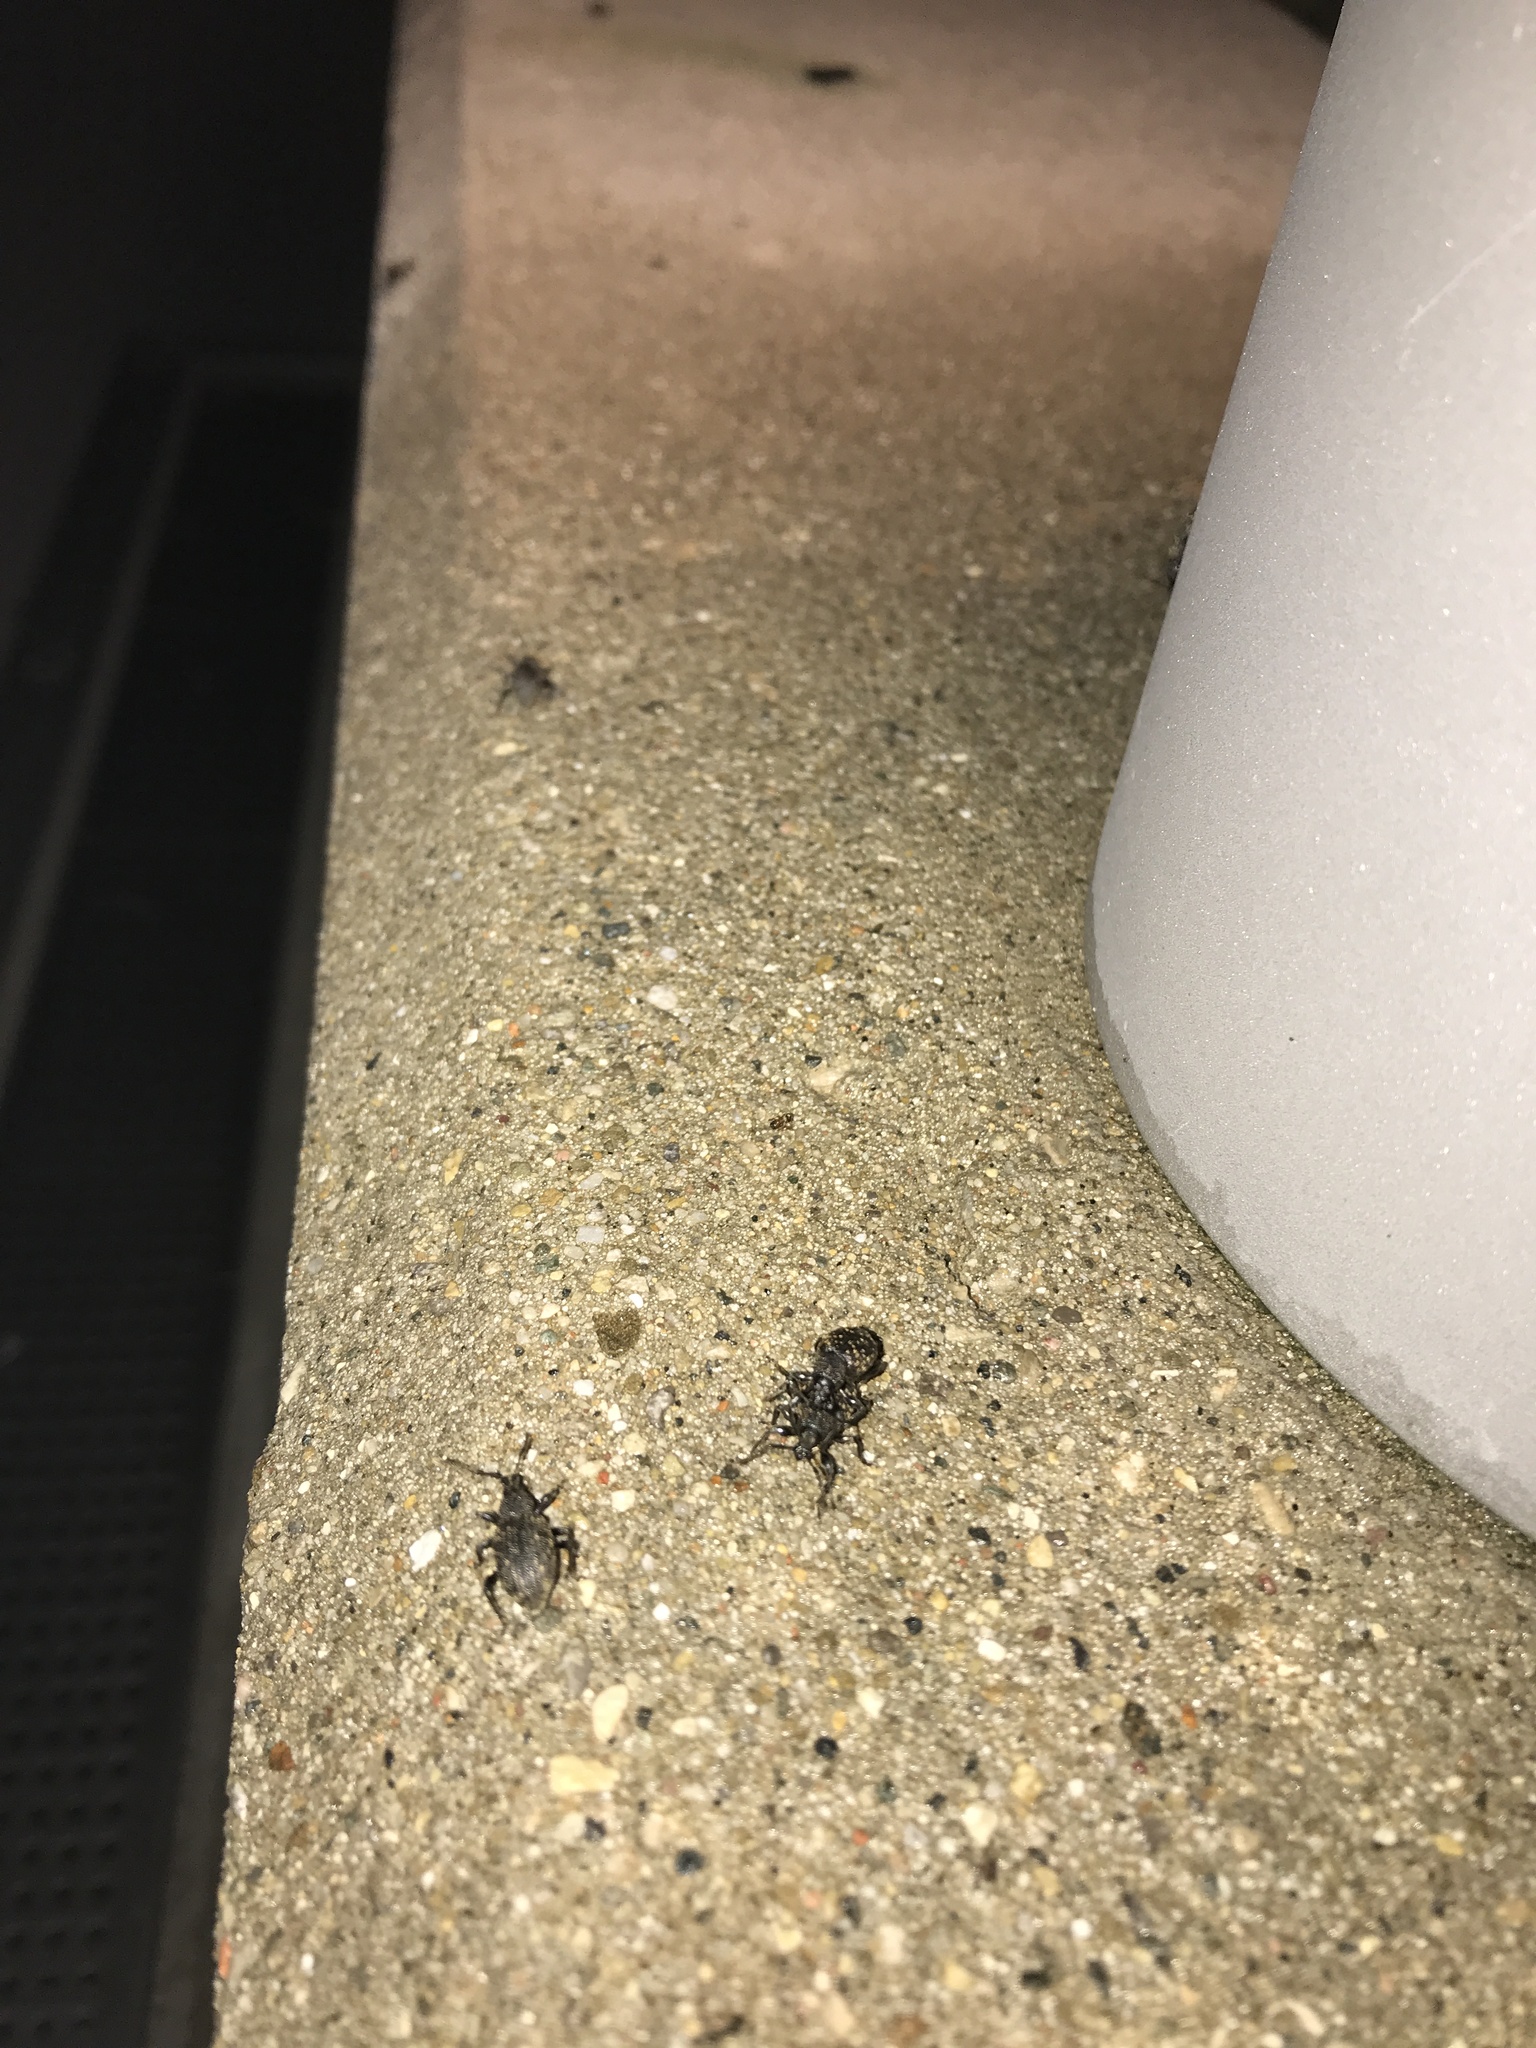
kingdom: Animalia
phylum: Arthropoda
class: Insecta
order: Coleoptera
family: Curculionidae
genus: Otiorhynchus
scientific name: Otiorhynchus sulcatus
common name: Black vine weevil
